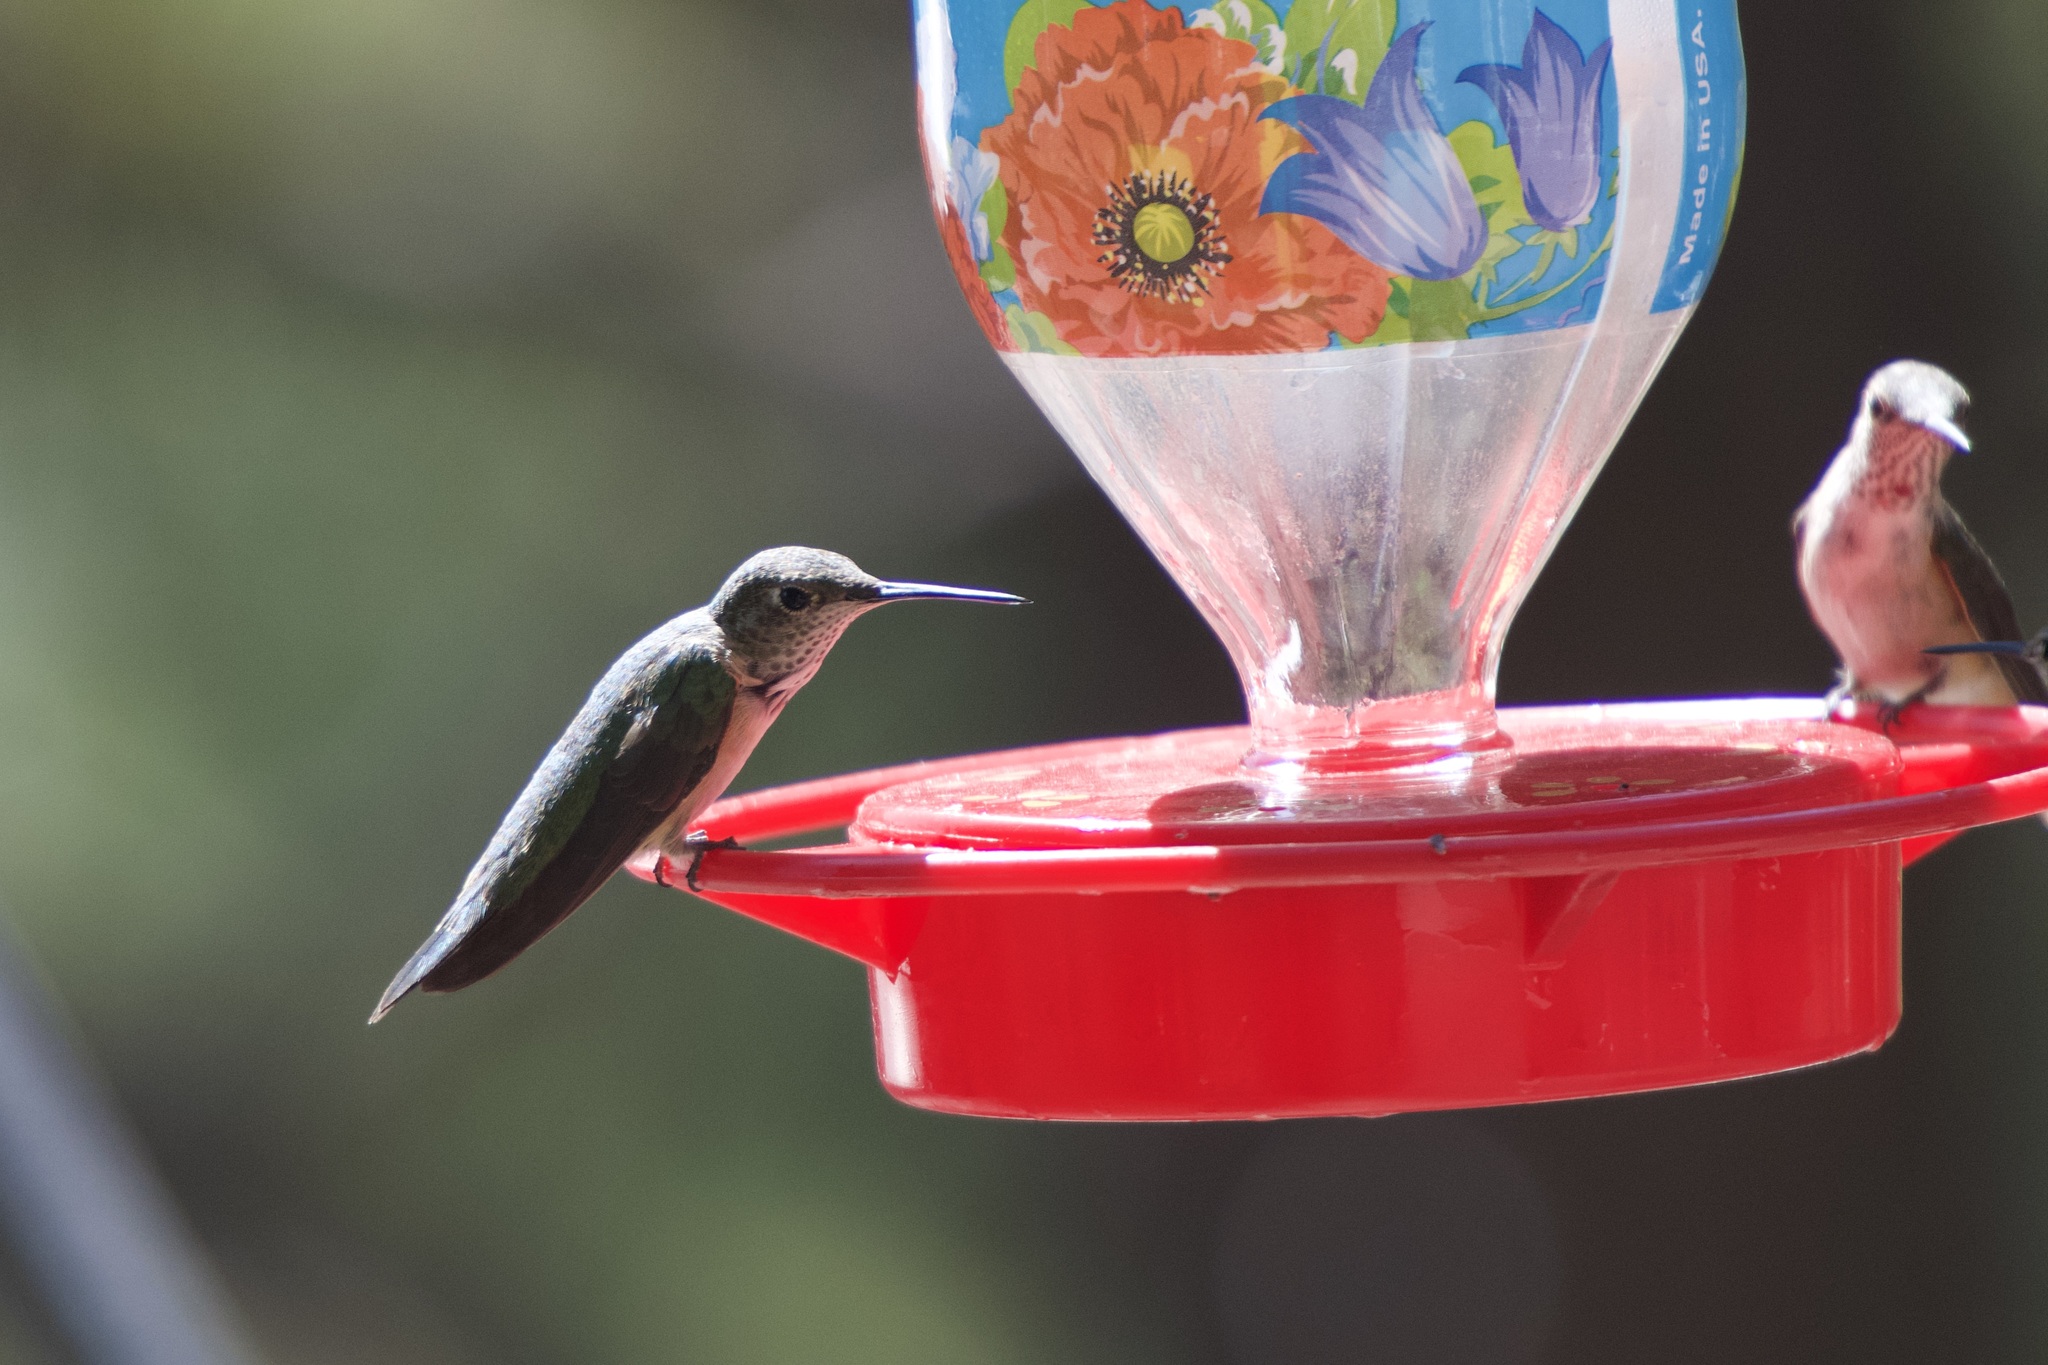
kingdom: Animalia
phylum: Chordata
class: Aves
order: Apodiformes
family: Trochilidae
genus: Selasphorus
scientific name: Selasphorus platycercus
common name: Broad-tailed hummingbird
